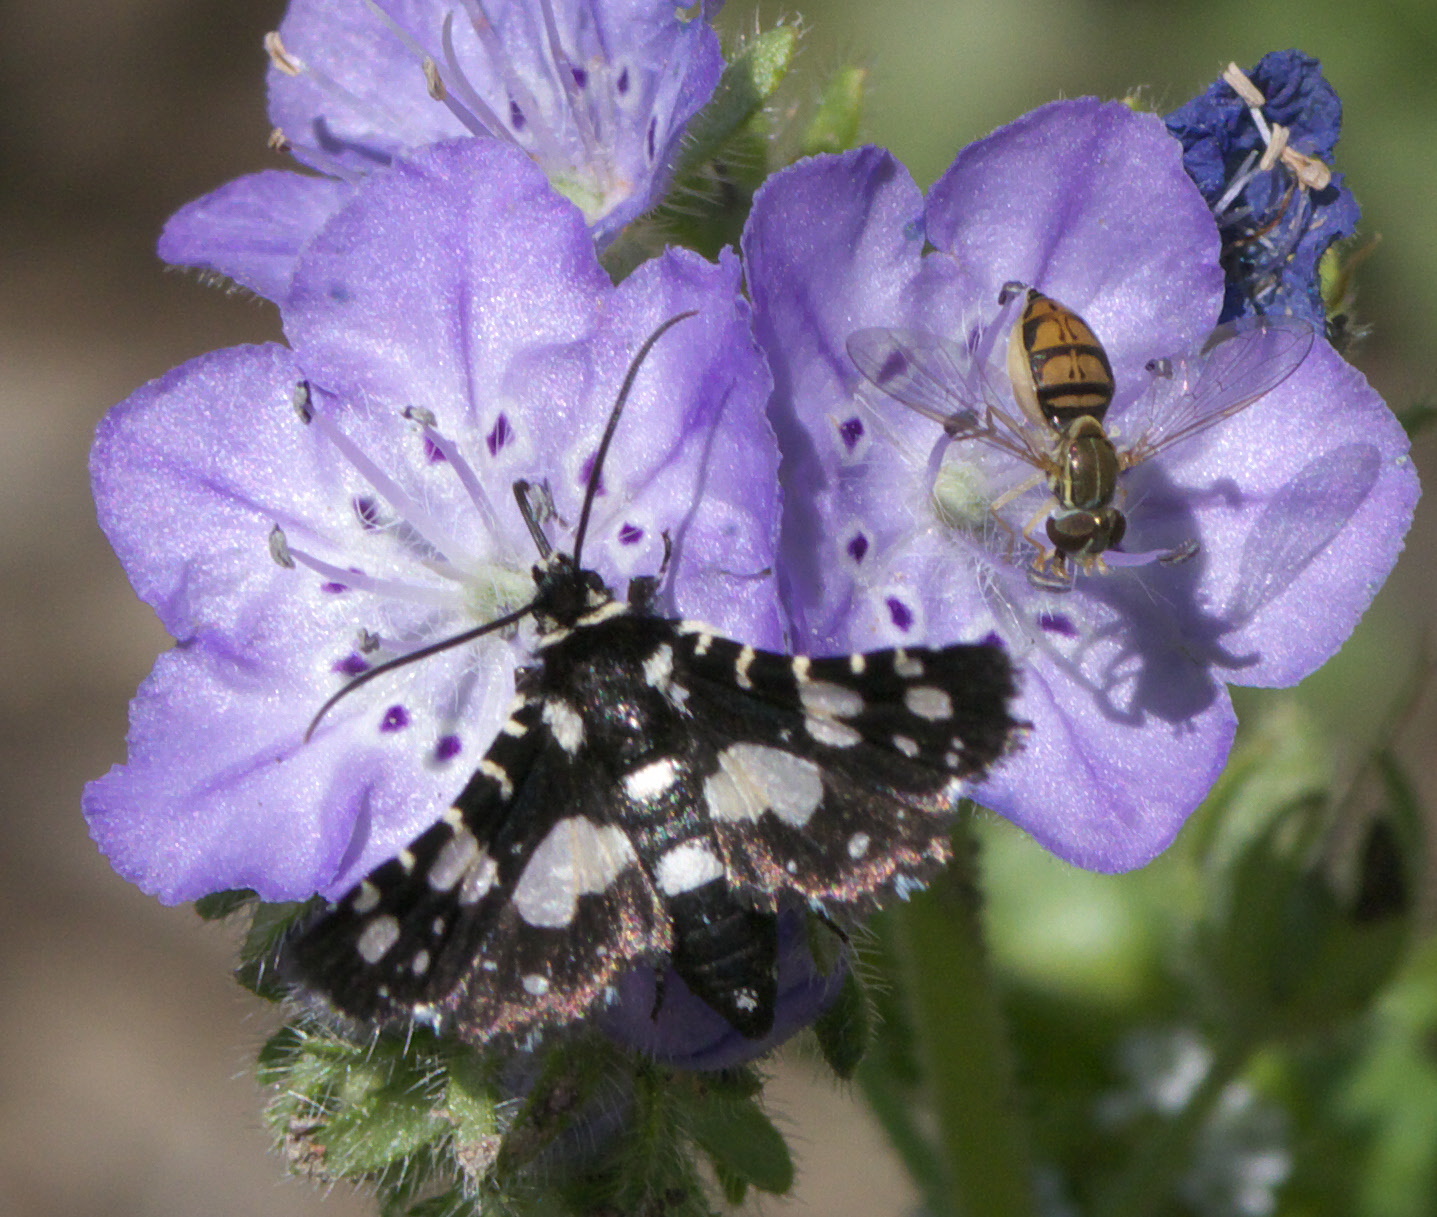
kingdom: Animalia
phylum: Arthropoda
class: Insecta
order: Lepidoptera
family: Thyrididae
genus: Pseudothyris
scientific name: Pseudothyris sepulchralis
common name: Mournful thyris moth
